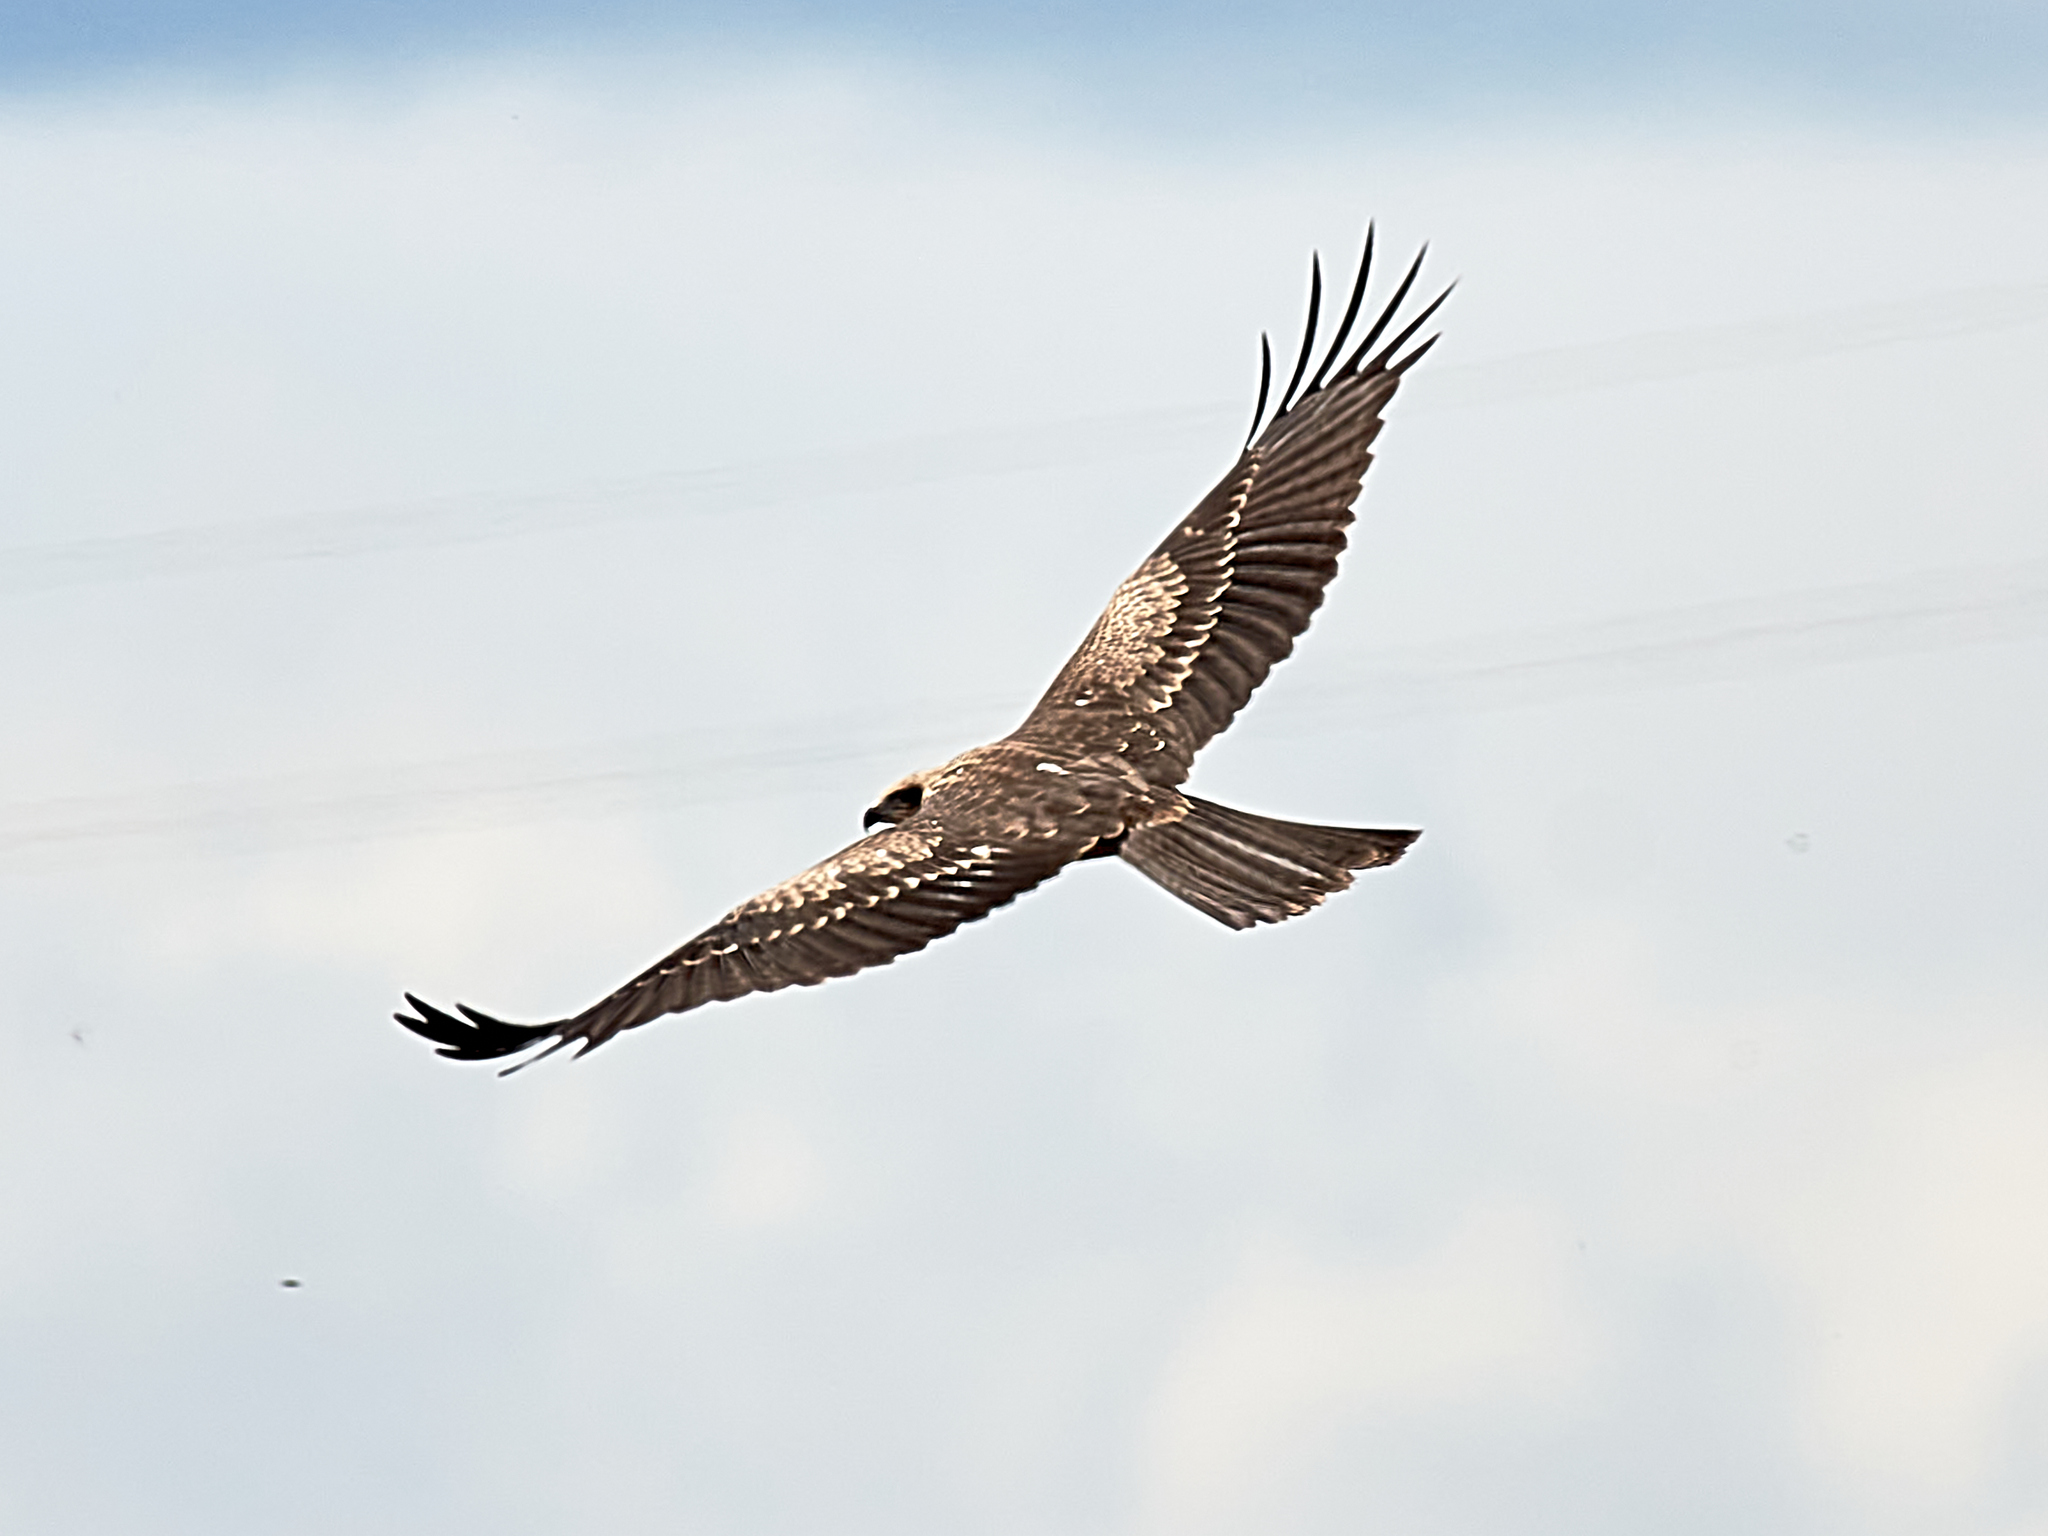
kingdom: Animalia
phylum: Chordata
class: Aves
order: Accipitriformes
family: Accipitridae
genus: Milvus
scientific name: Milvus migrans
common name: Black kite
